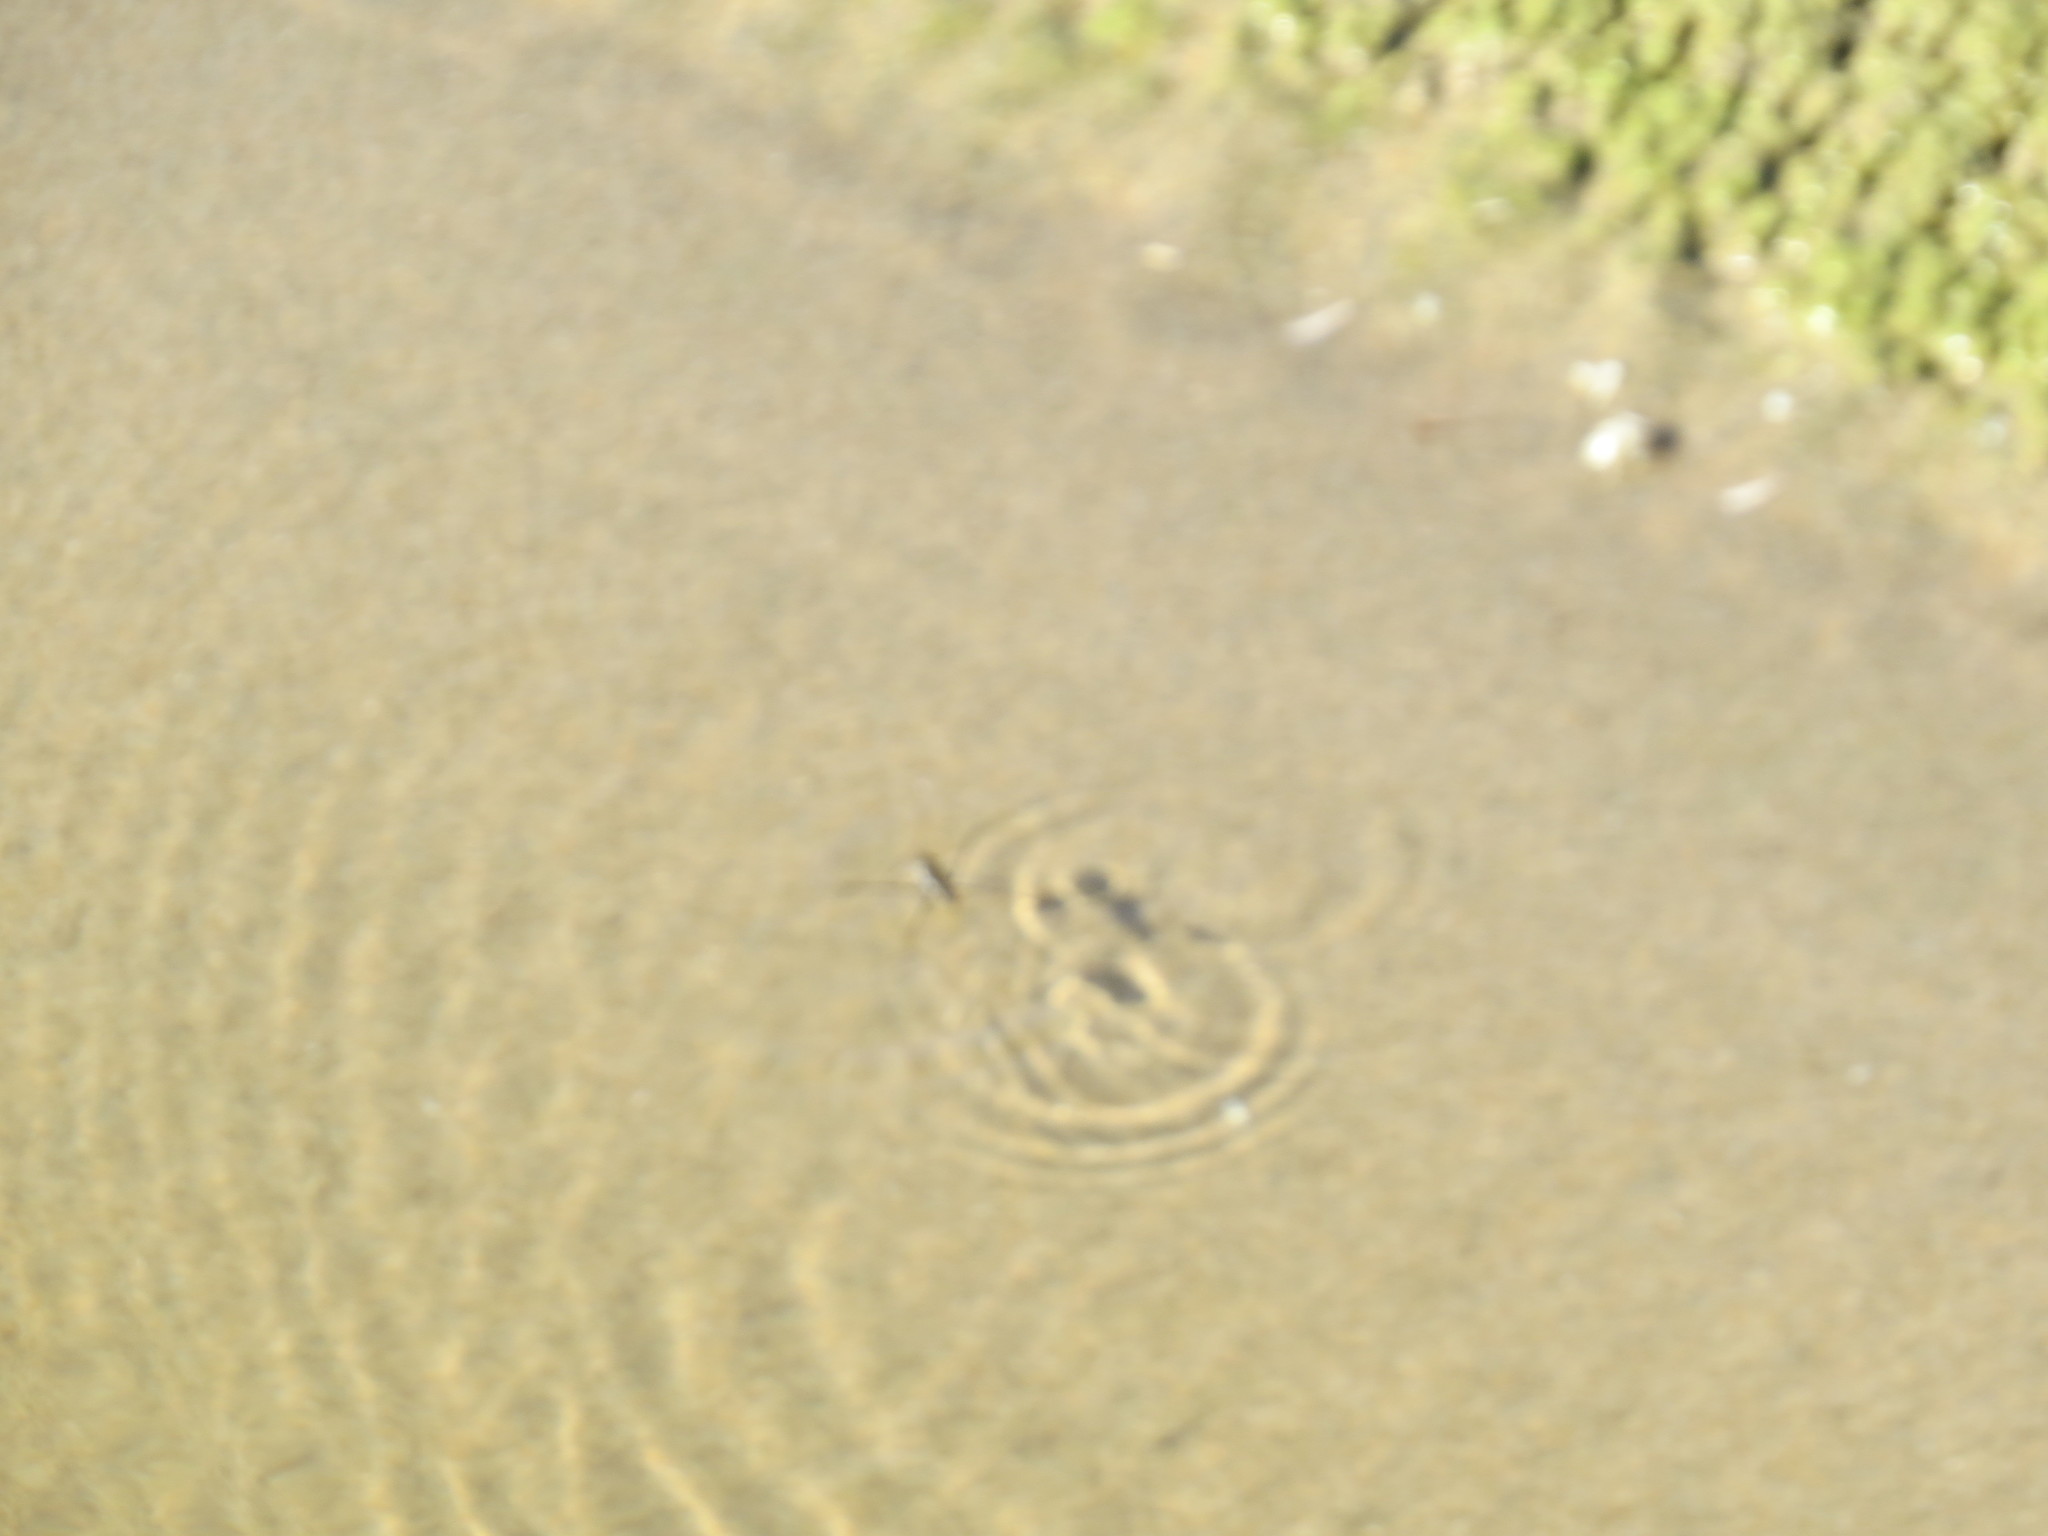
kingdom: Animalia
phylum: Arthropoda
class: Insecta
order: Hemiptera
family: Gerridae
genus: Aquarius
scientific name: Aquarius remigis
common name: Common water strider
